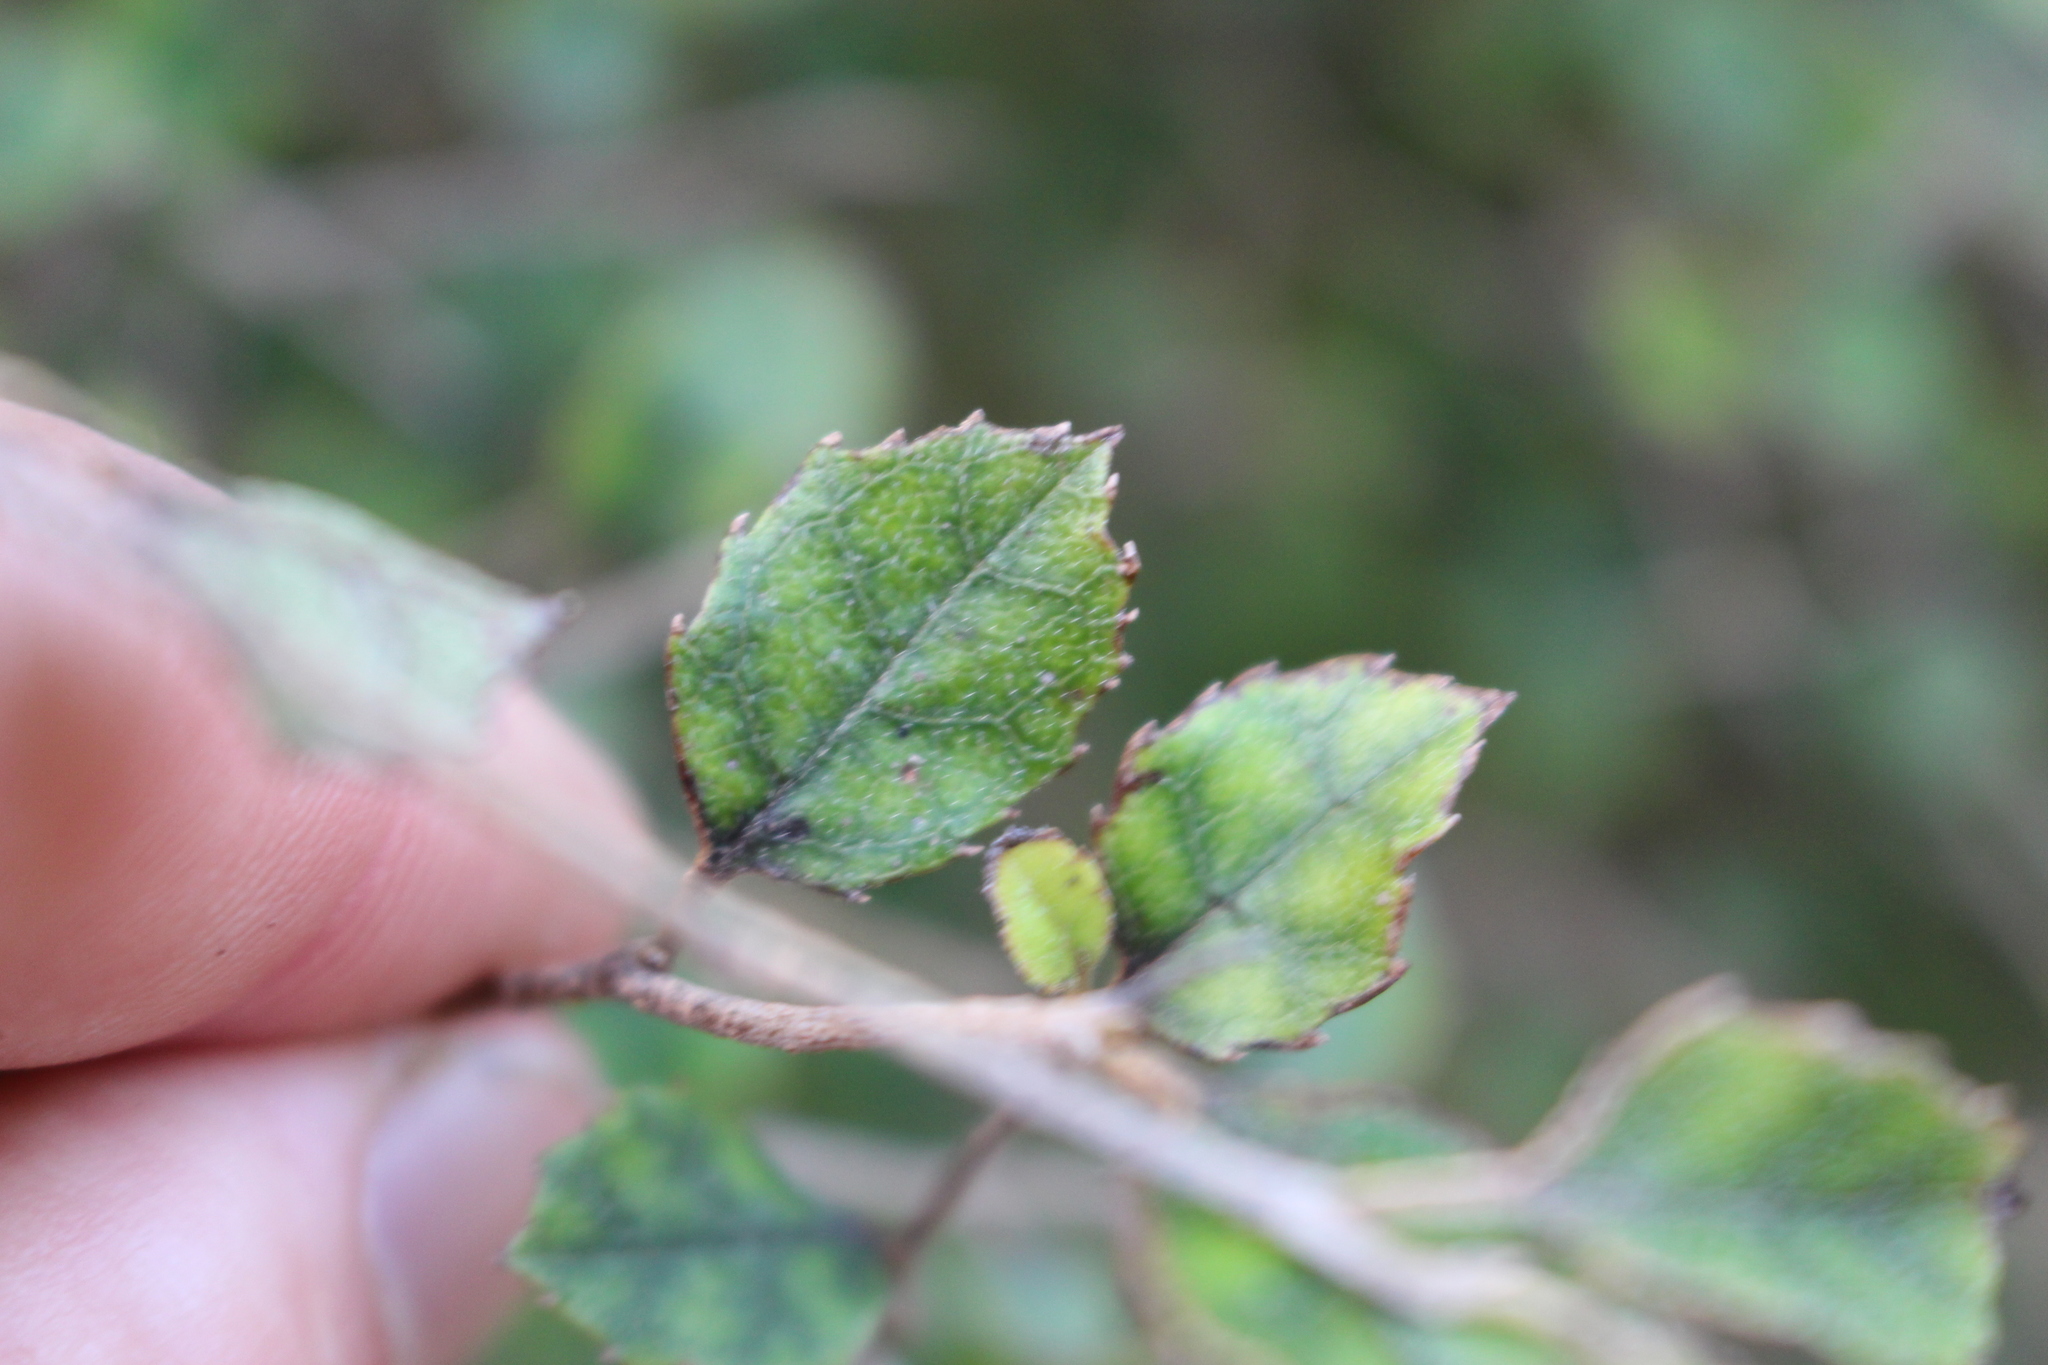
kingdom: Plantae
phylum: Tracheophyta
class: Magnoliopsida
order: Asterales
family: Rousseaceae
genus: Carpodetus
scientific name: Carpodetus serratus
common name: White mapau
